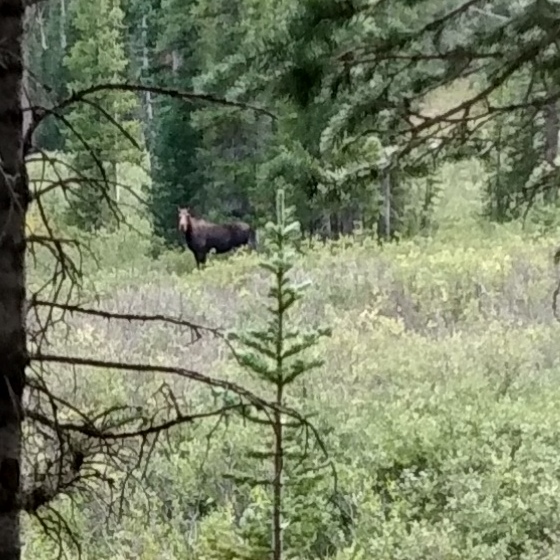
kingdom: Animalia
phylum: Chordata
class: Mammalia
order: Artiodactyla
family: Cervidae
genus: Alces
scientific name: Alces alces
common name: Moose
